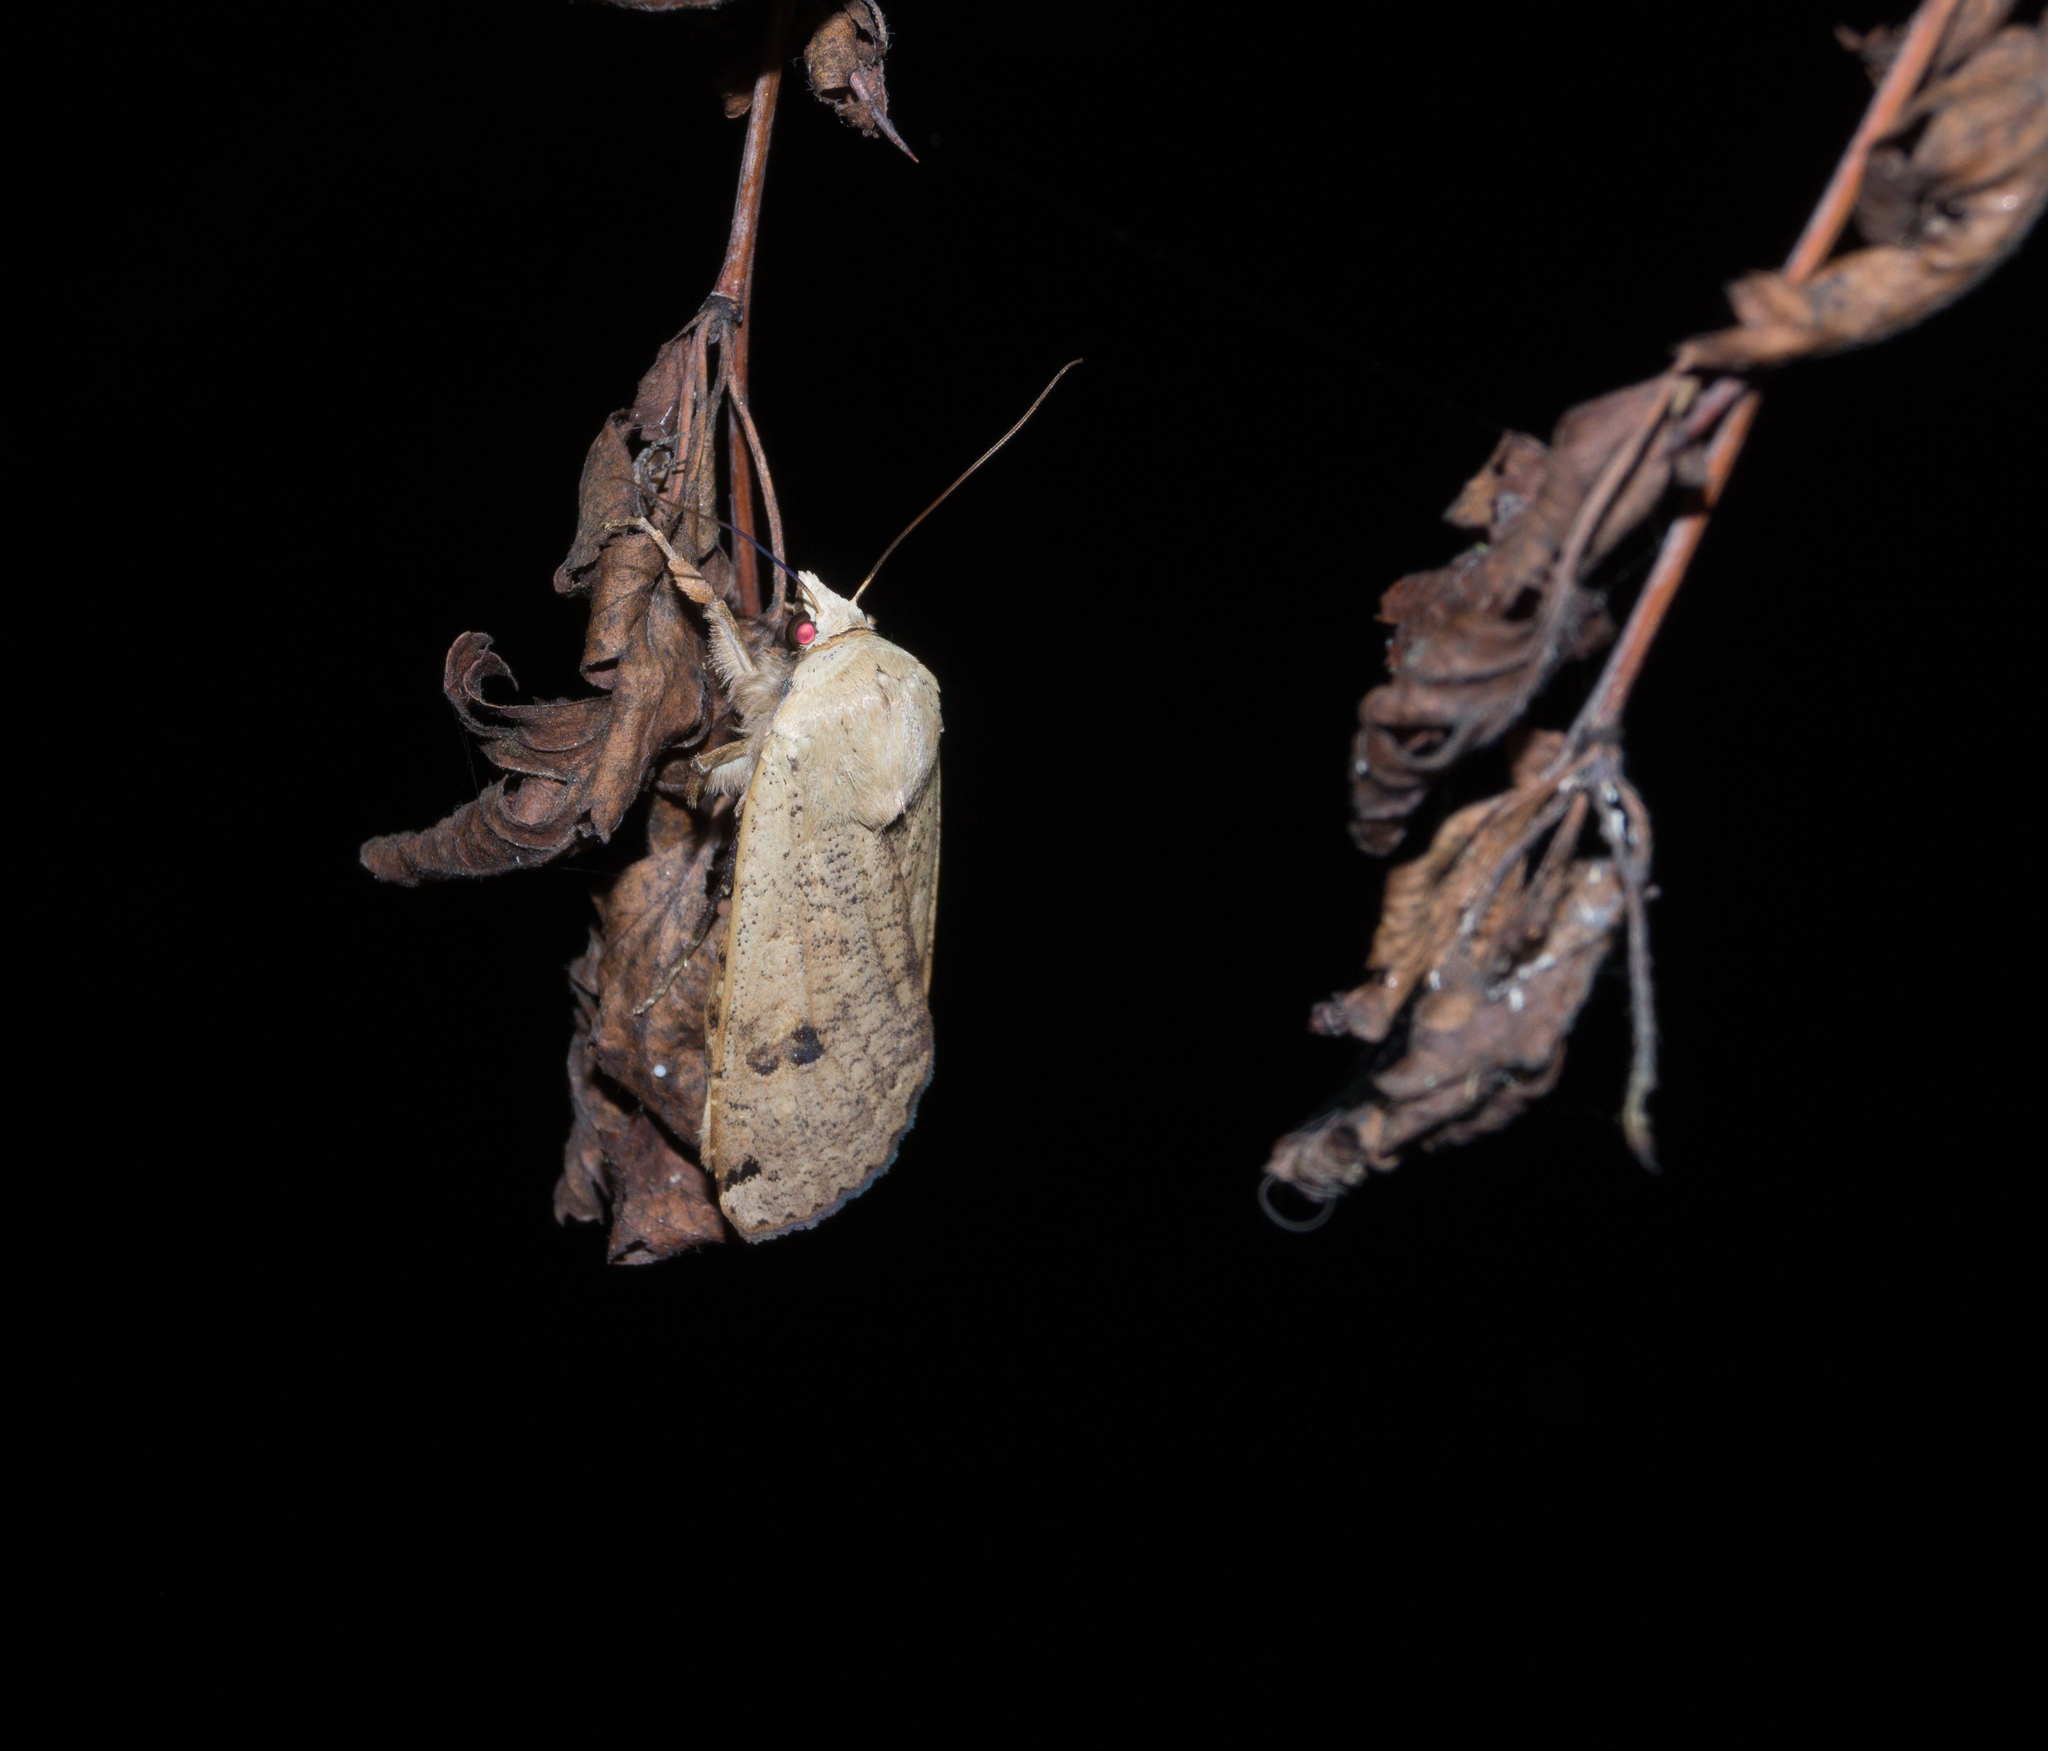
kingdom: Animalia
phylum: Arthropoda
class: Insecta
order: Lepidoptera
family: Noctuidae
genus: Noctua
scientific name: Noctua pronuba
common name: Large yellow underwing
